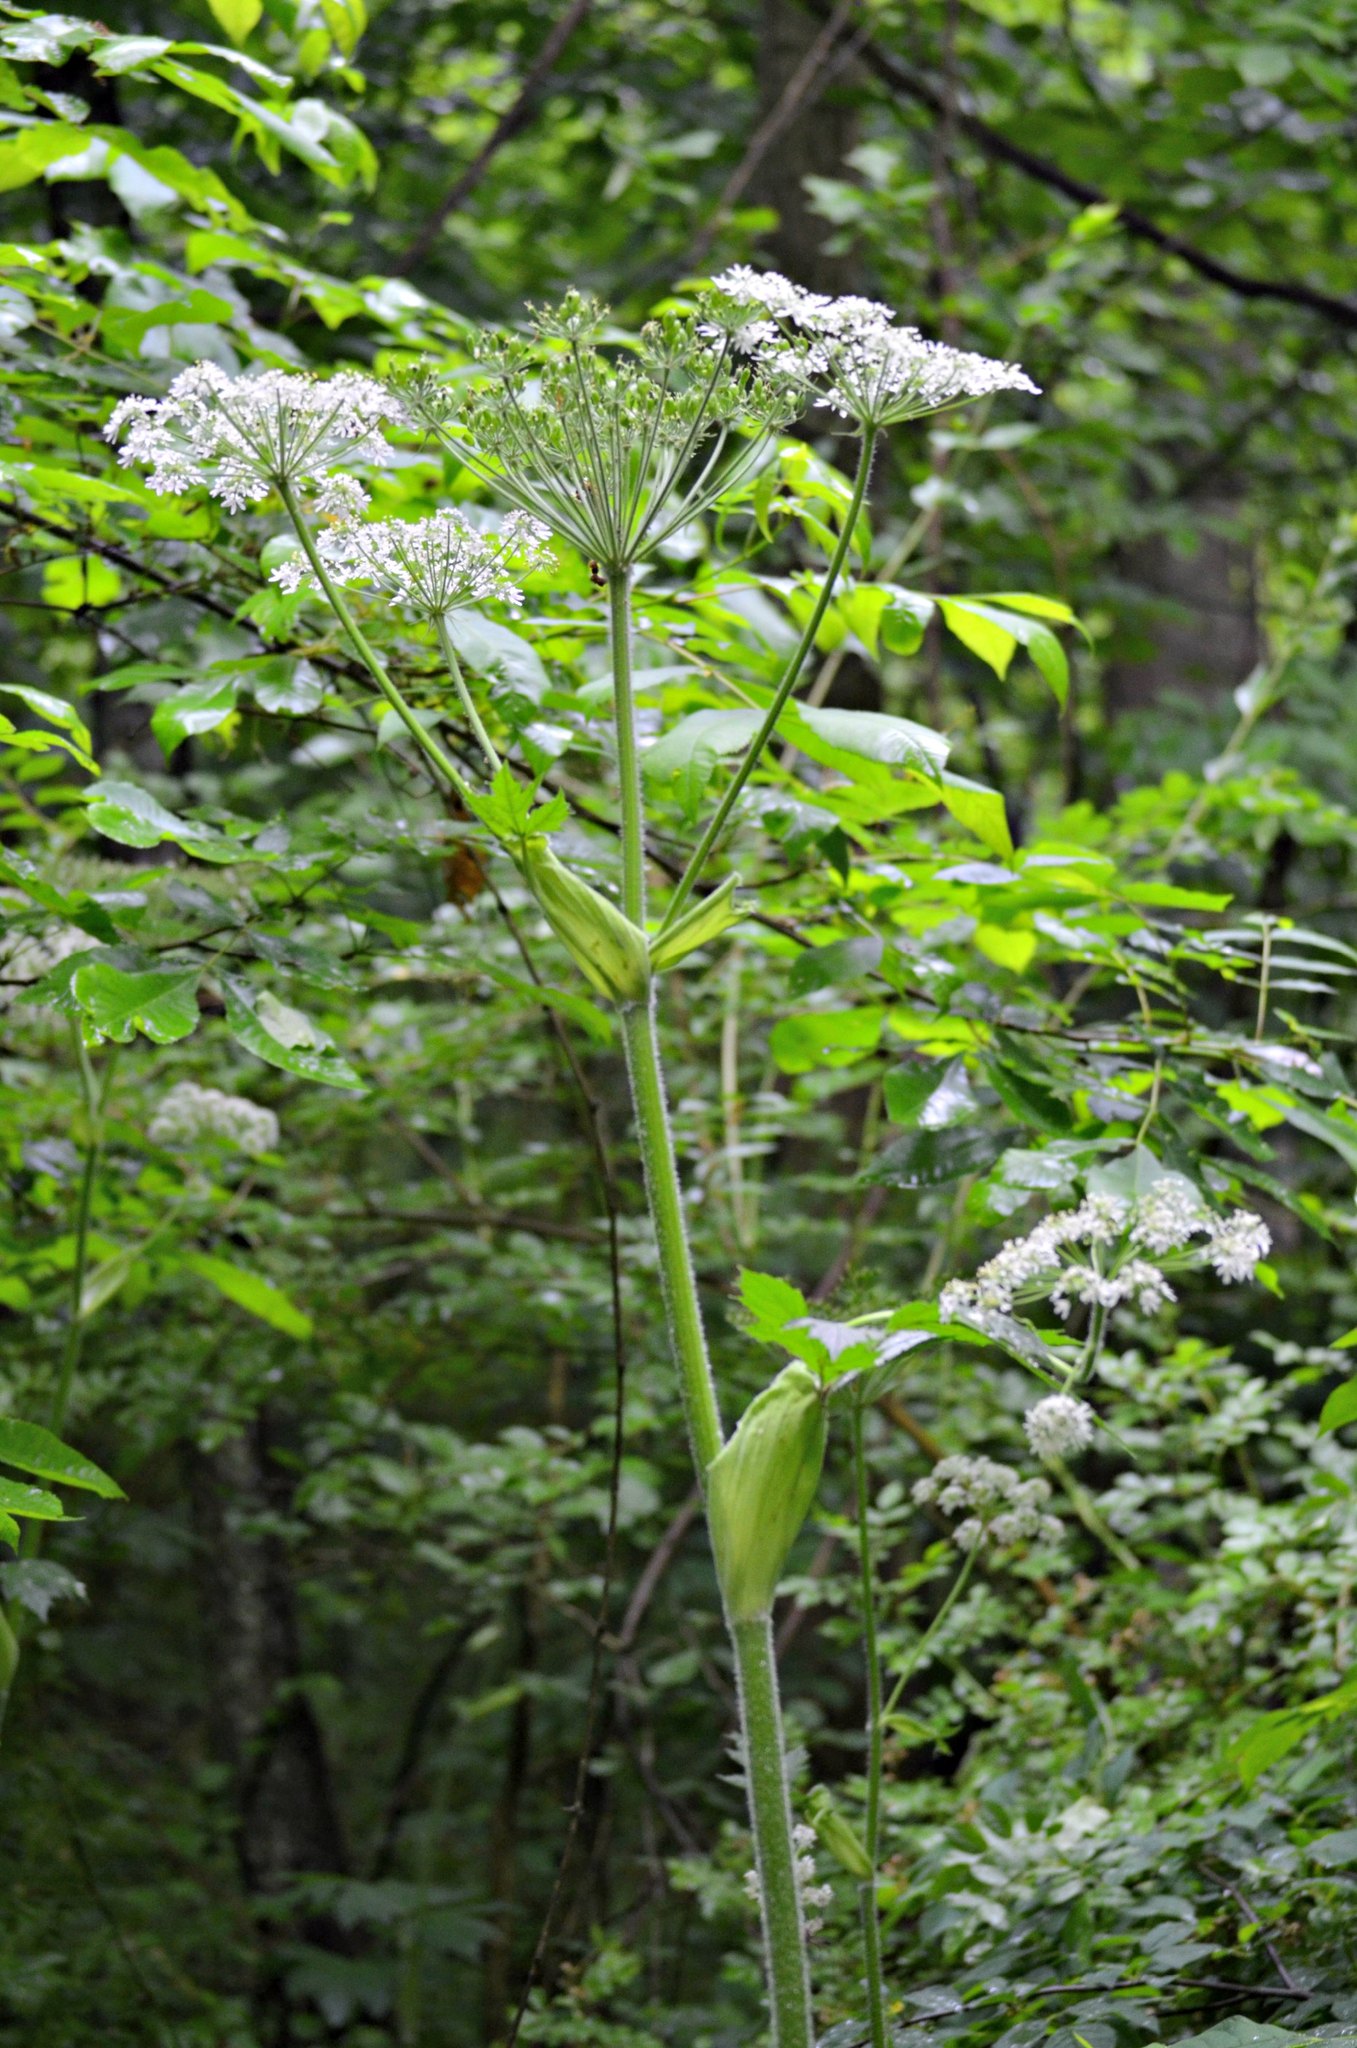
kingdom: Plantae
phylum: Tracheophyta
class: Magnoliopsida
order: Apiales
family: Apiaceae
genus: Heracleum
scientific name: Heracleum maximum
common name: American cow parsnip
